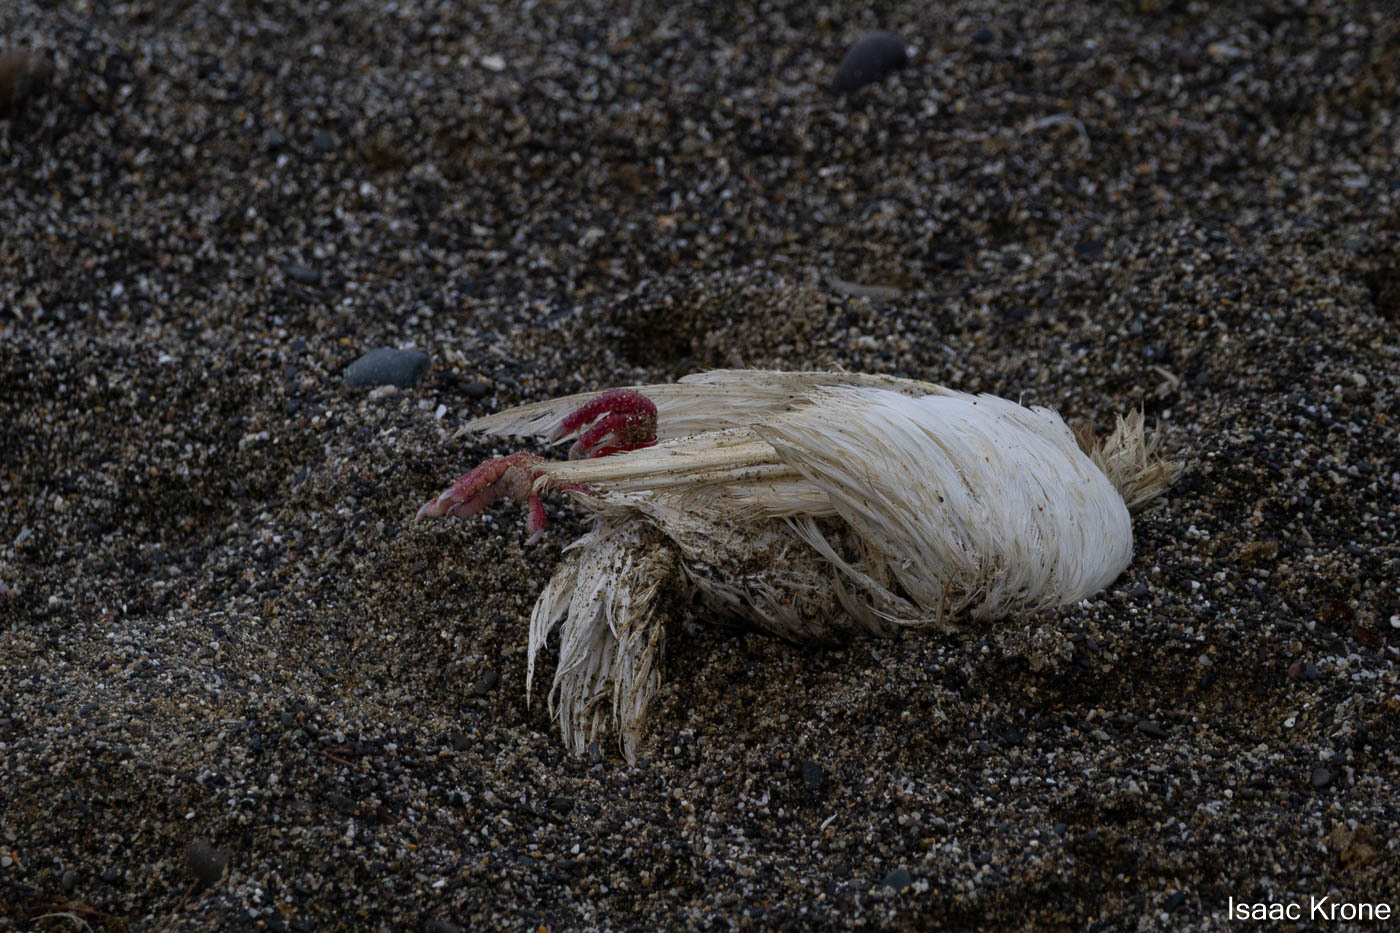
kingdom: Animalia
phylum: Chordata
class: Aves
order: Columbiformes
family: Columbidae
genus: Columba
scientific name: Columba livia
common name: Rock pigeon
